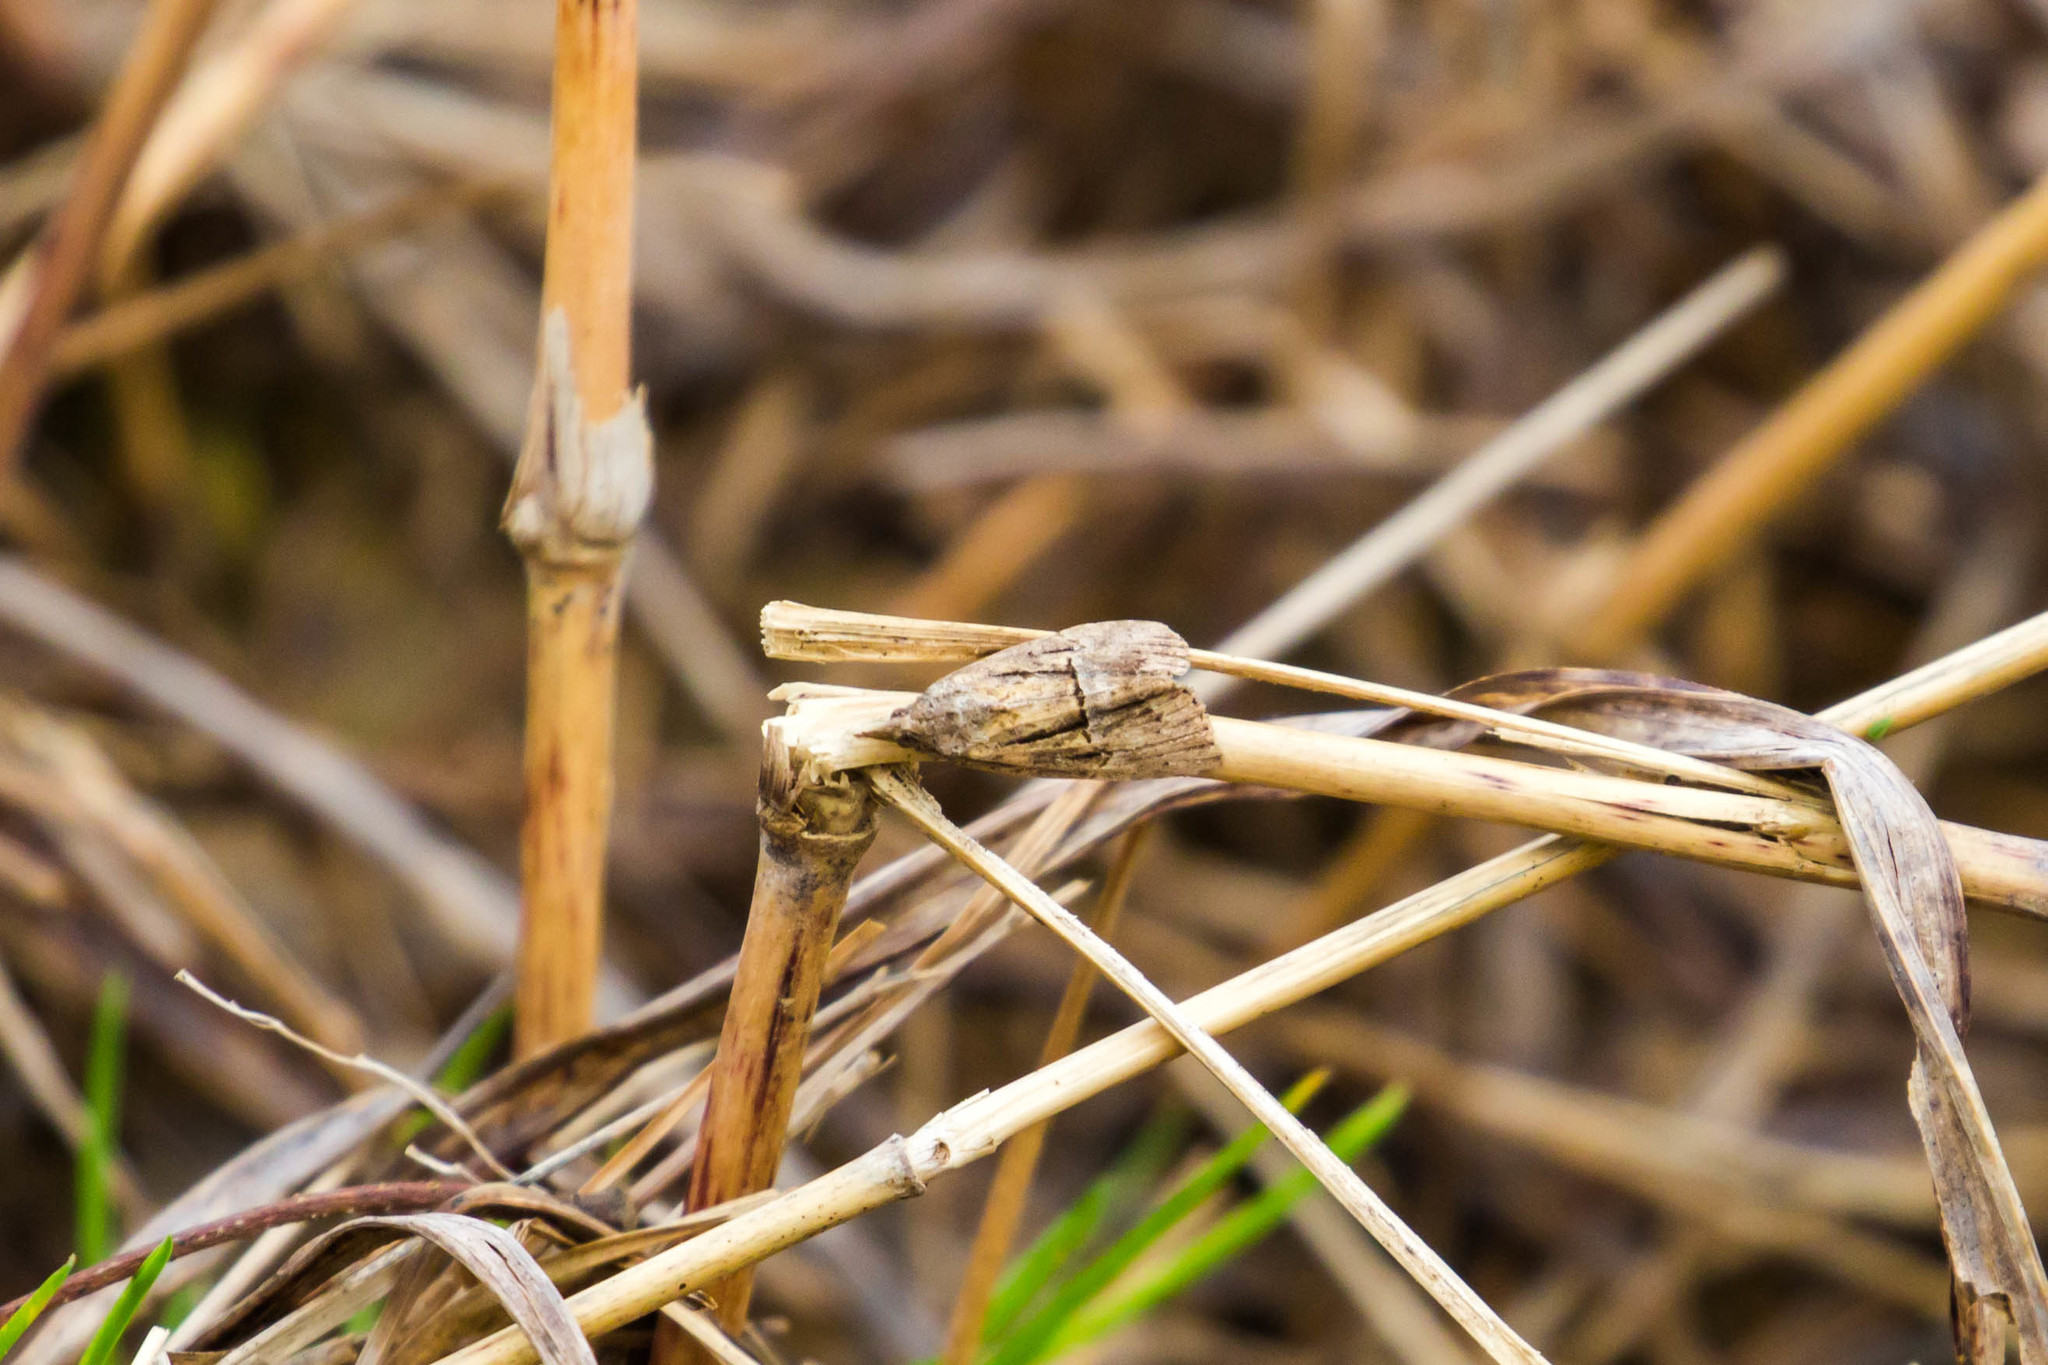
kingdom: Animalia
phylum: Arthropoda
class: Insecta
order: Lepidoptera
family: Erebidae
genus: Hypena
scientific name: Hypena scabra
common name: Green cloverworm
